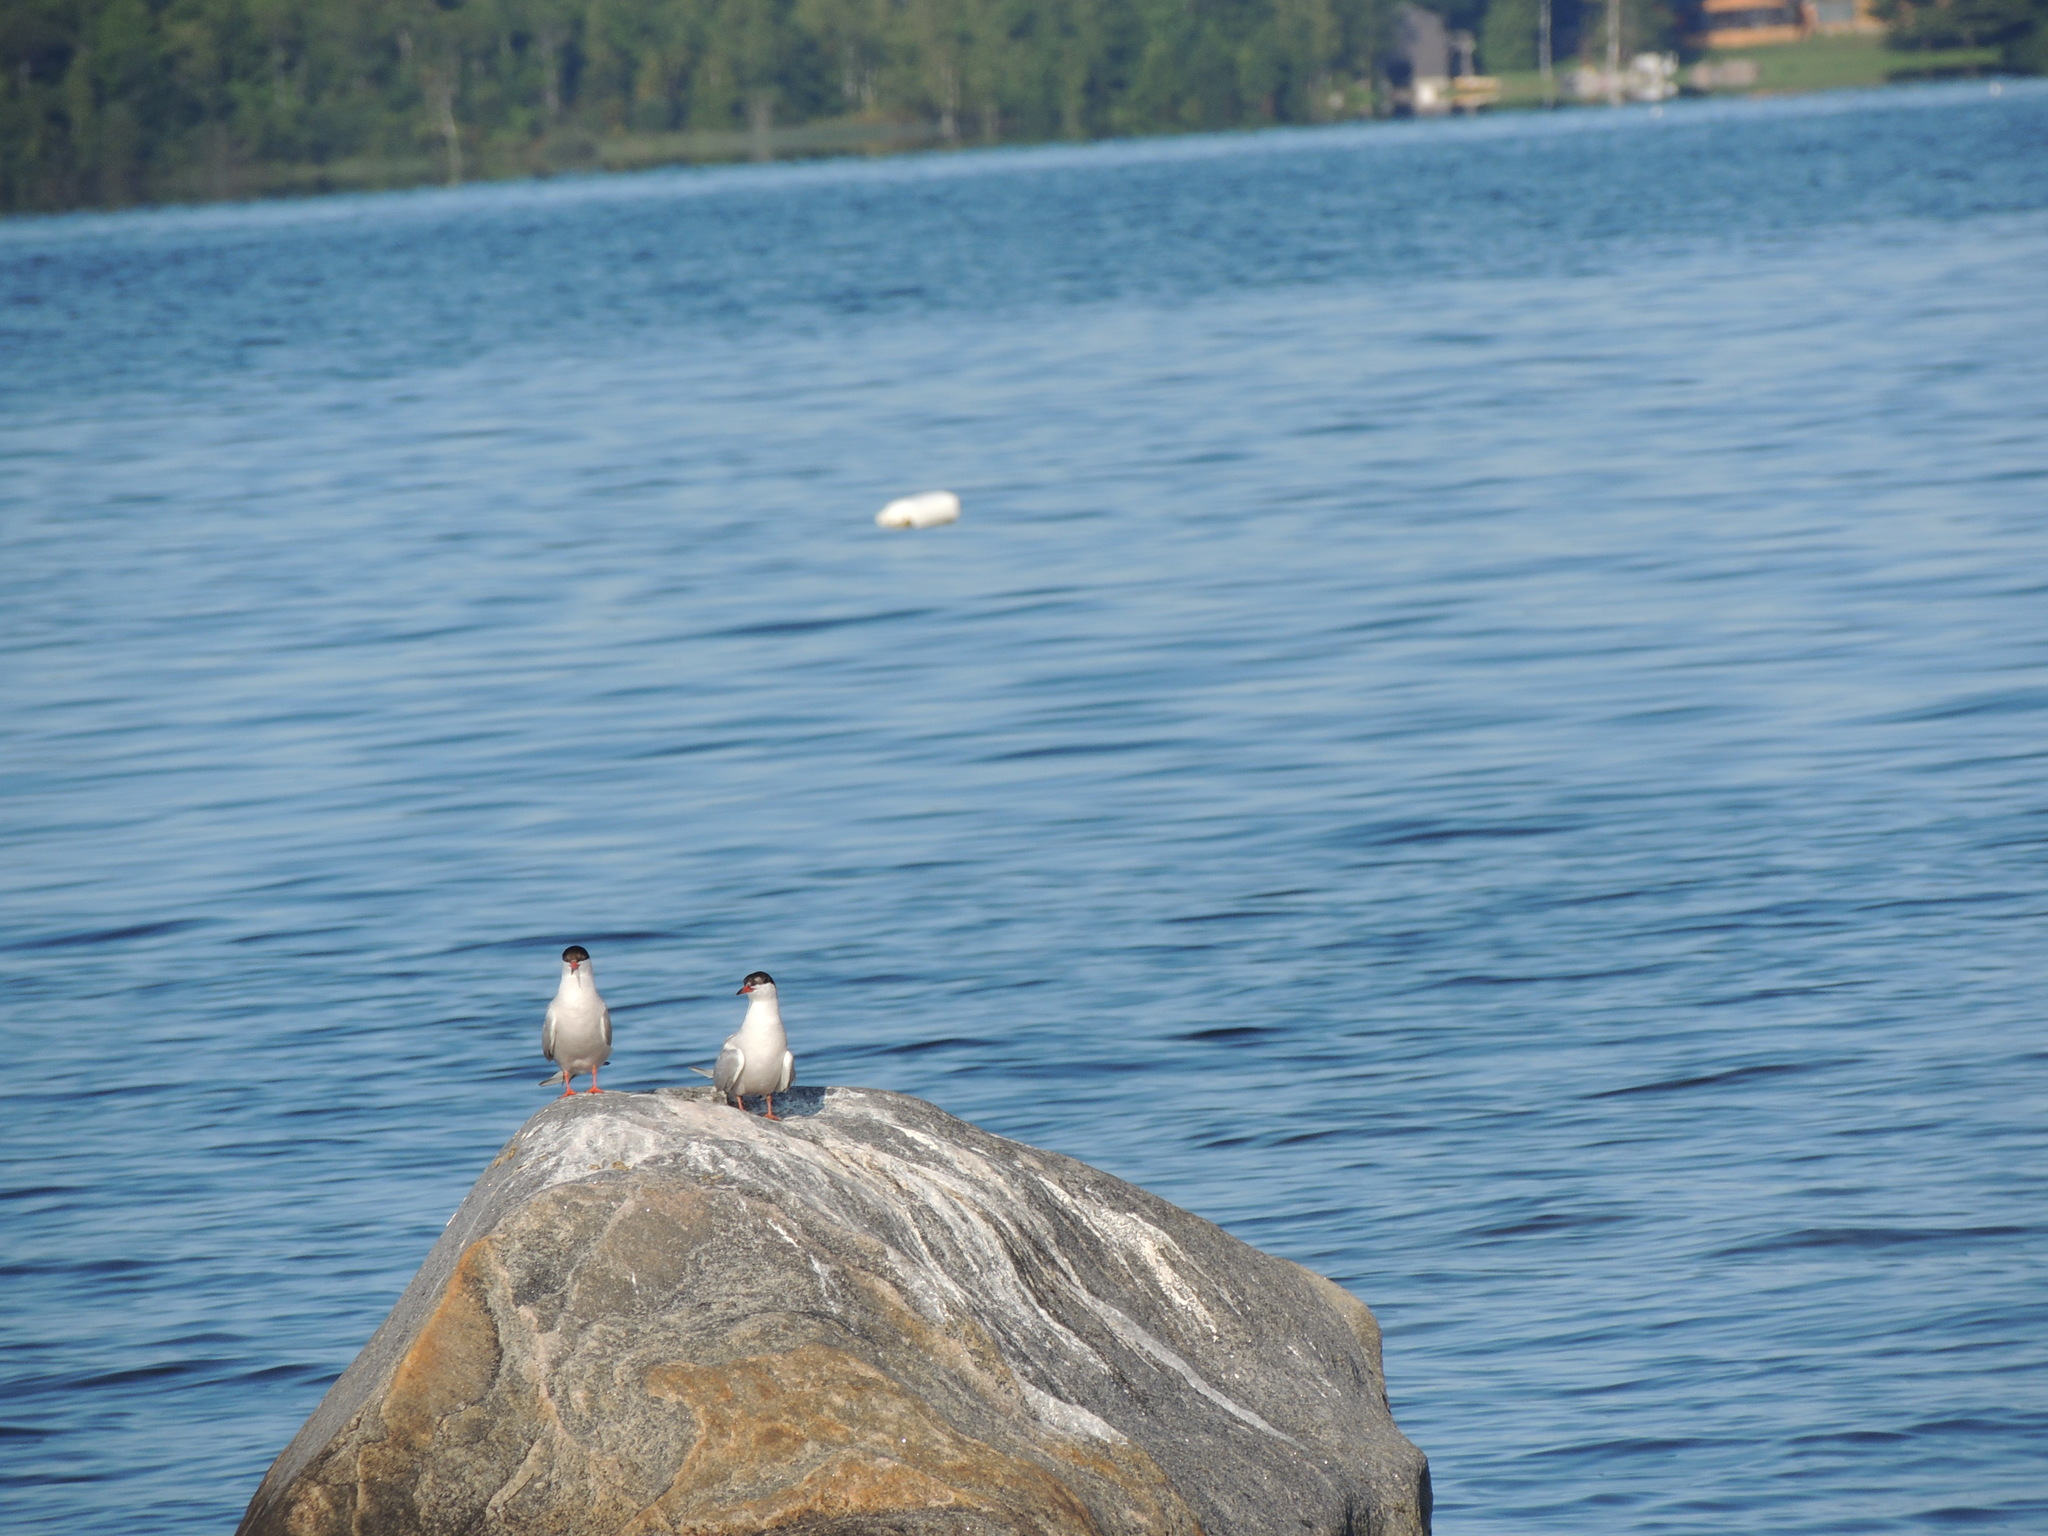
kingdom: Animalia
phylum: Chordata
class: Aves
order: Charadriiformes
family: Laridae
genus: Sterna
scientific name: Sterna hirundo
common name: Common tern
